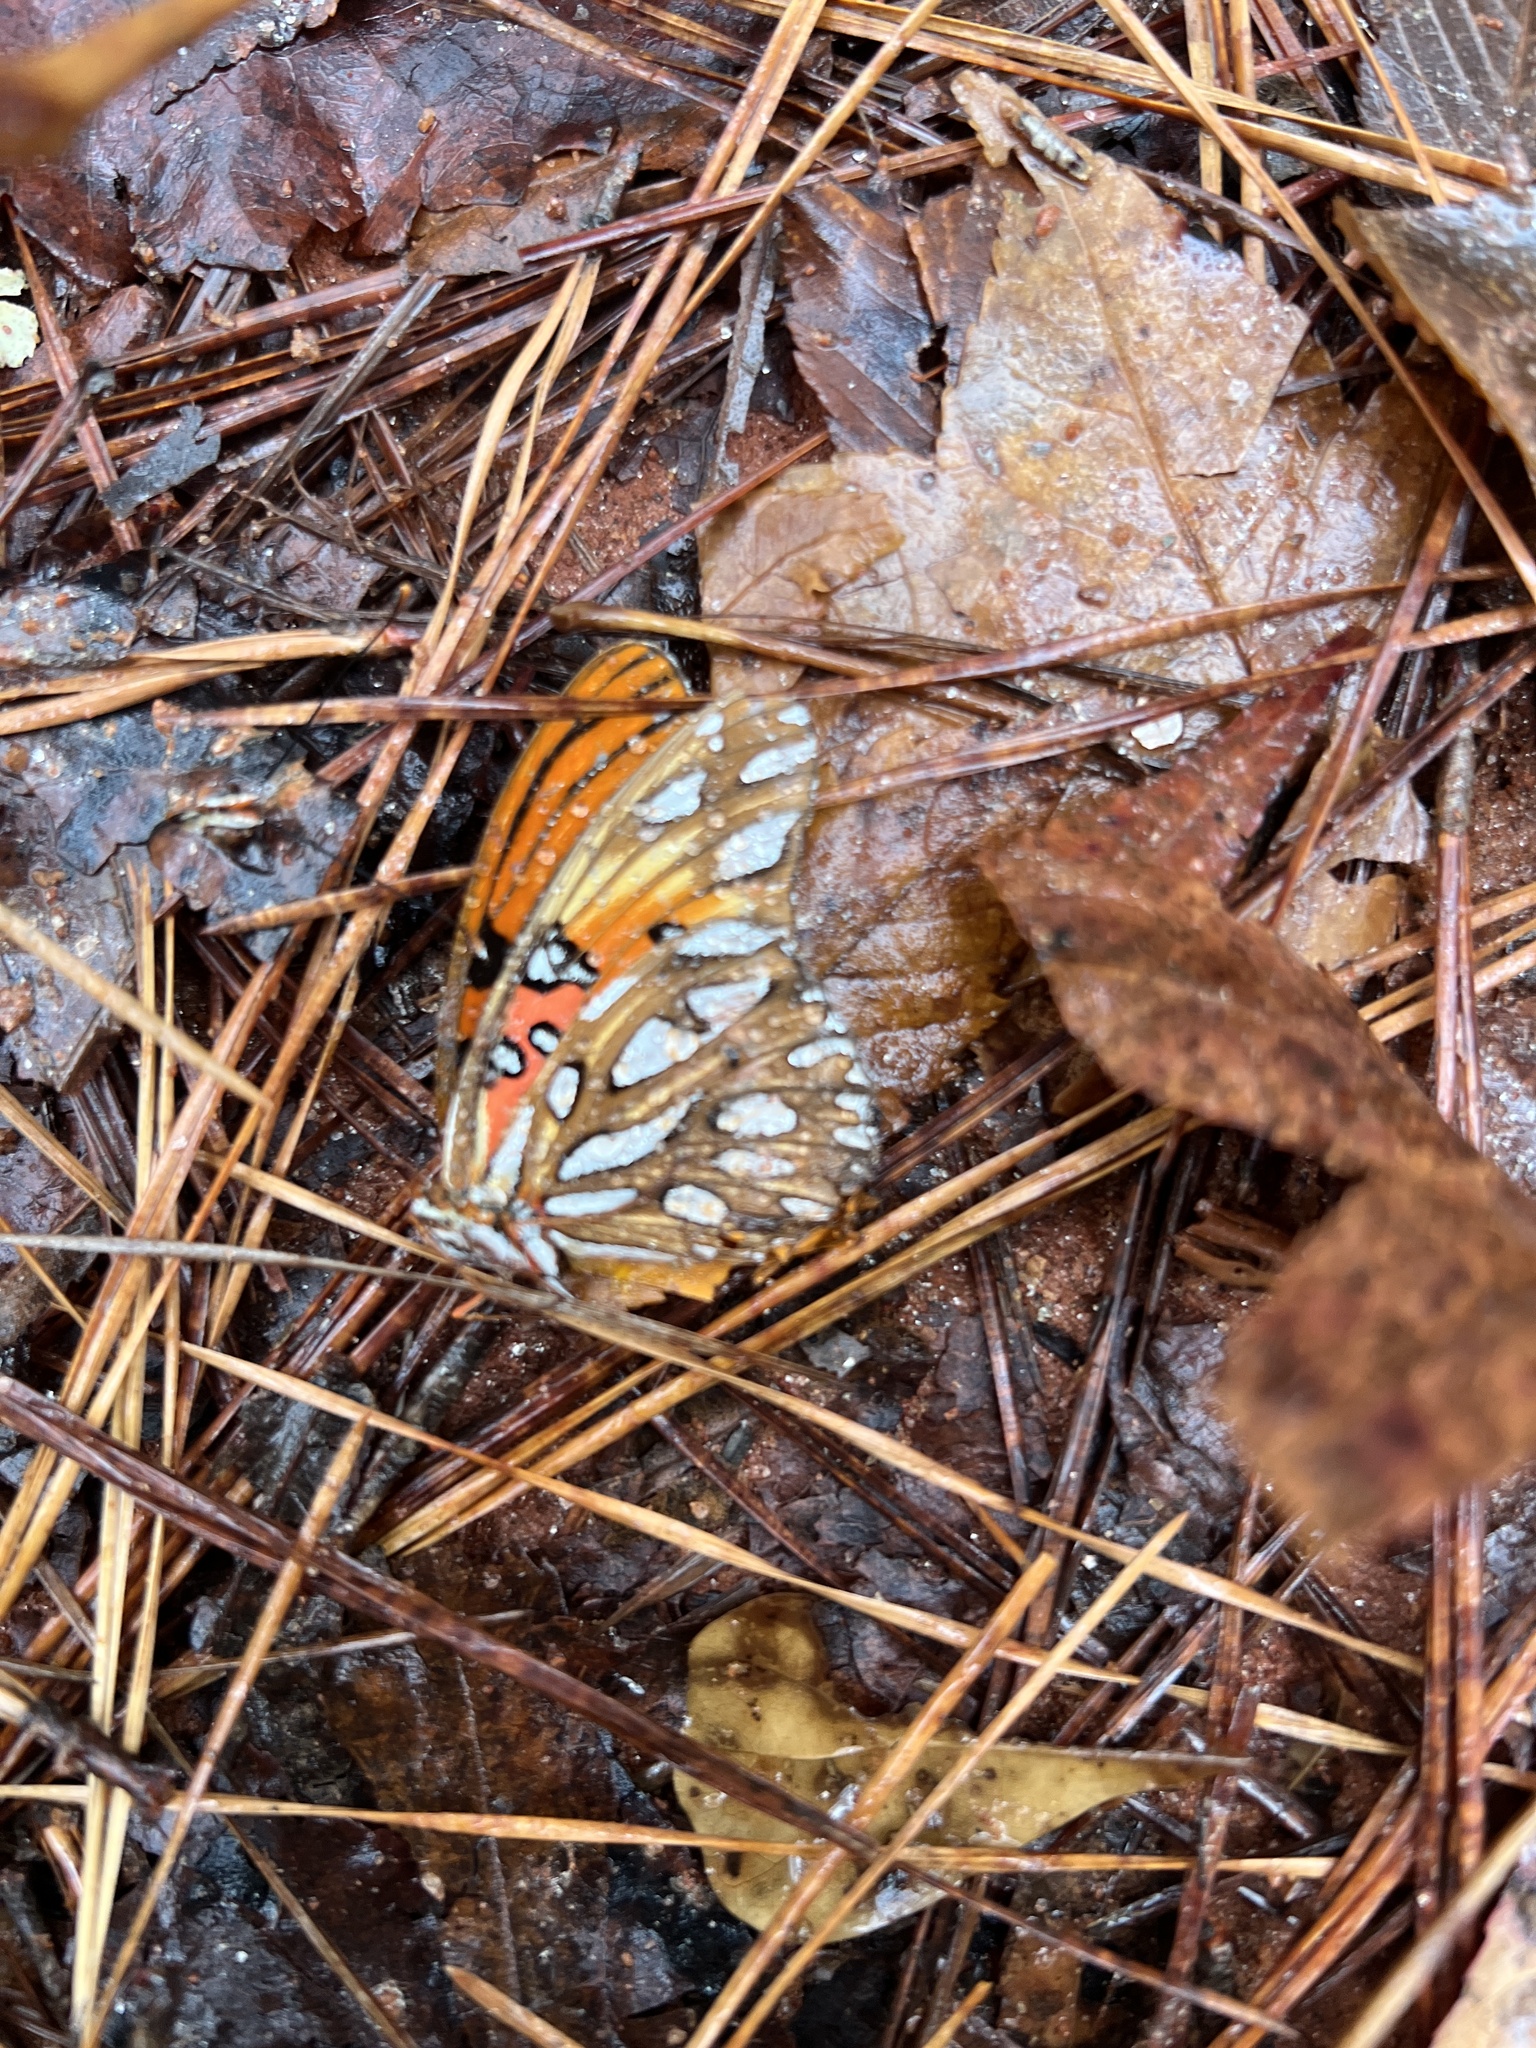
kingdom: Animalia
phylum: Arthropoda
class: Insecta
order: Lepidoptera
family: Nymphalidae
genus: Dione
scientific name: Dione vanillae
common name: Gulf fritillary
